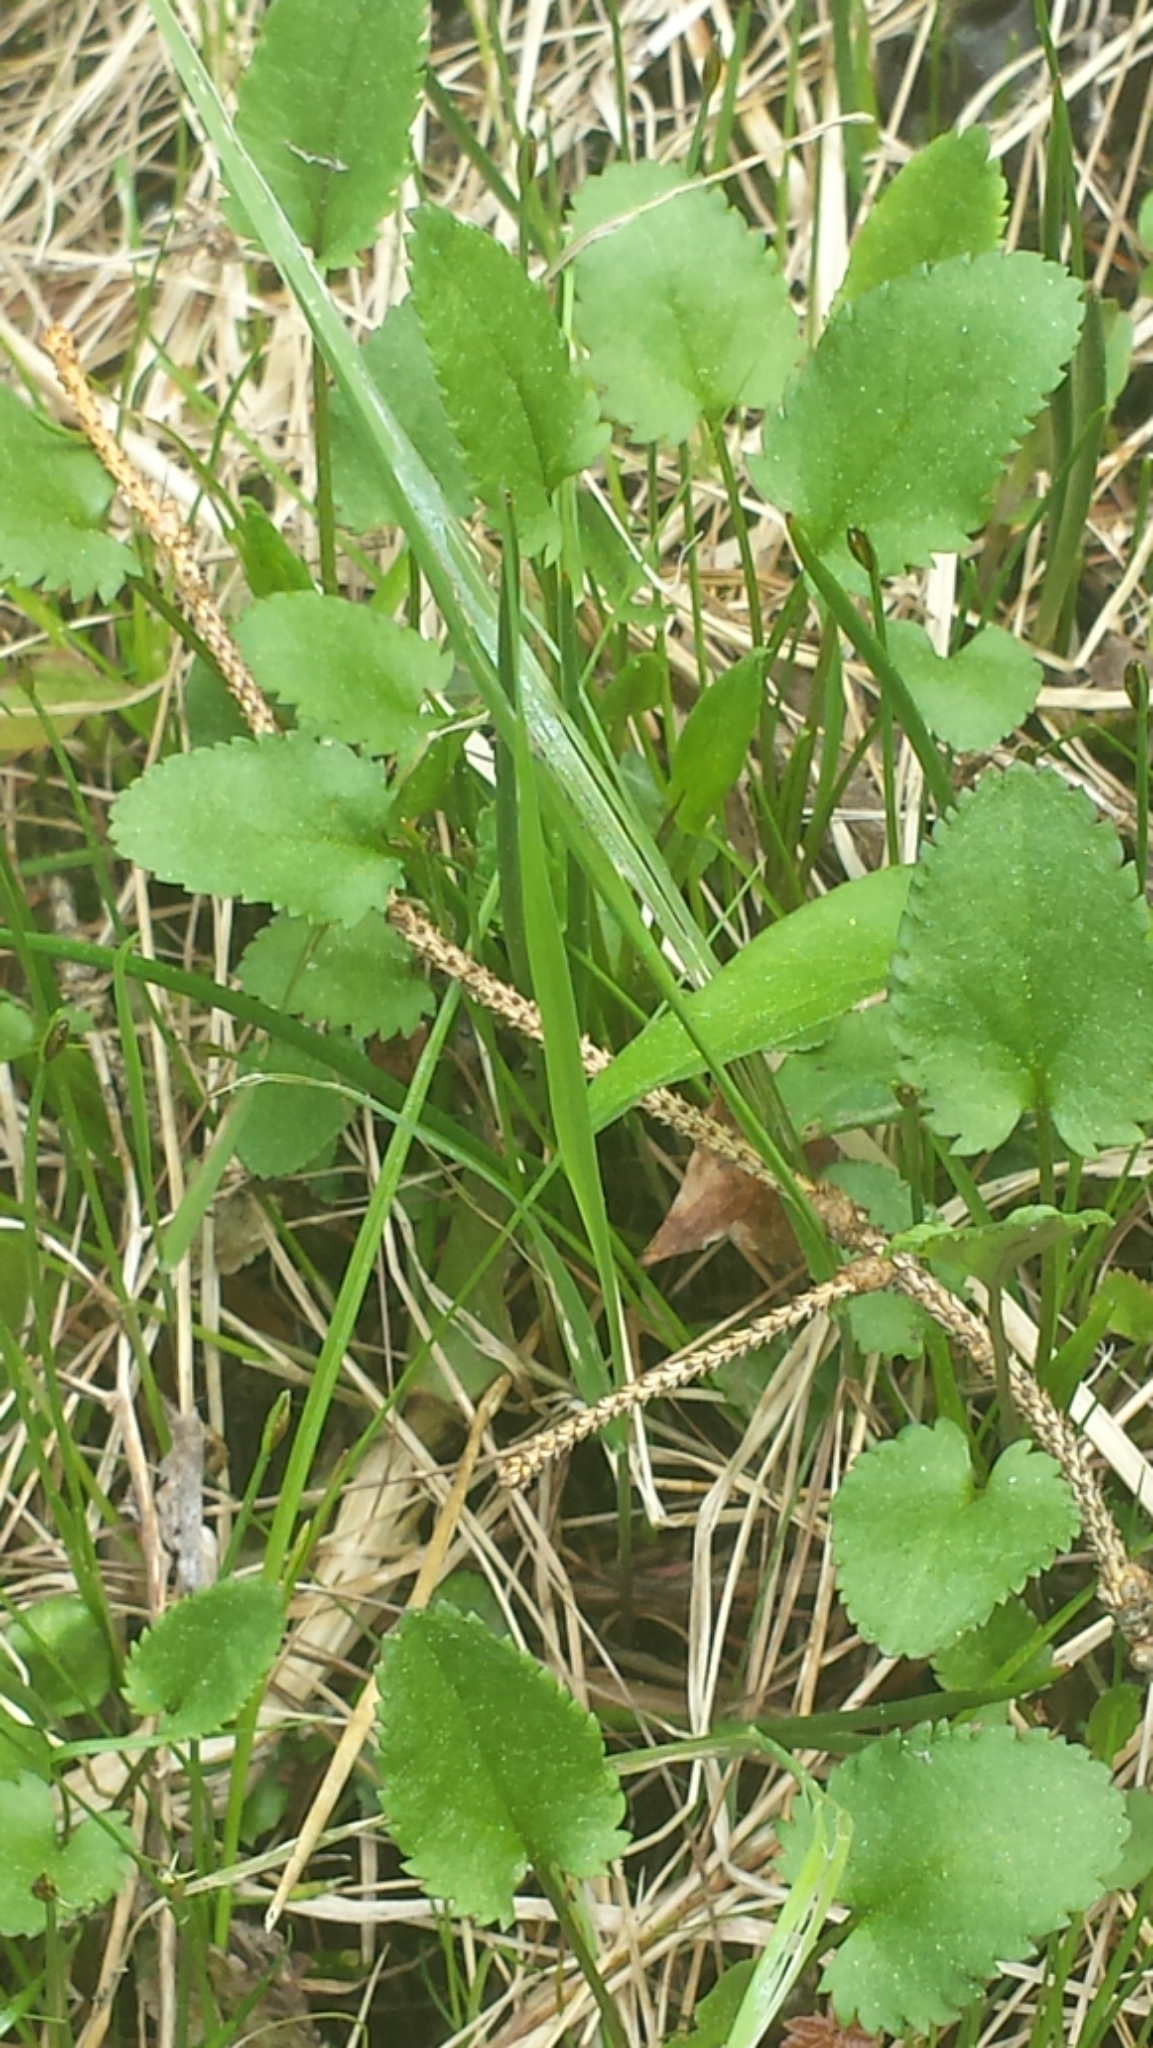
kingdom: Plantae
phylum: Tracheophyta
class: Magnoliopsida
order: Asterales
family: Asteraceae
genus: Packera
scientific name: Packera schweinitziana
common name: Schweinitz's ragwort
